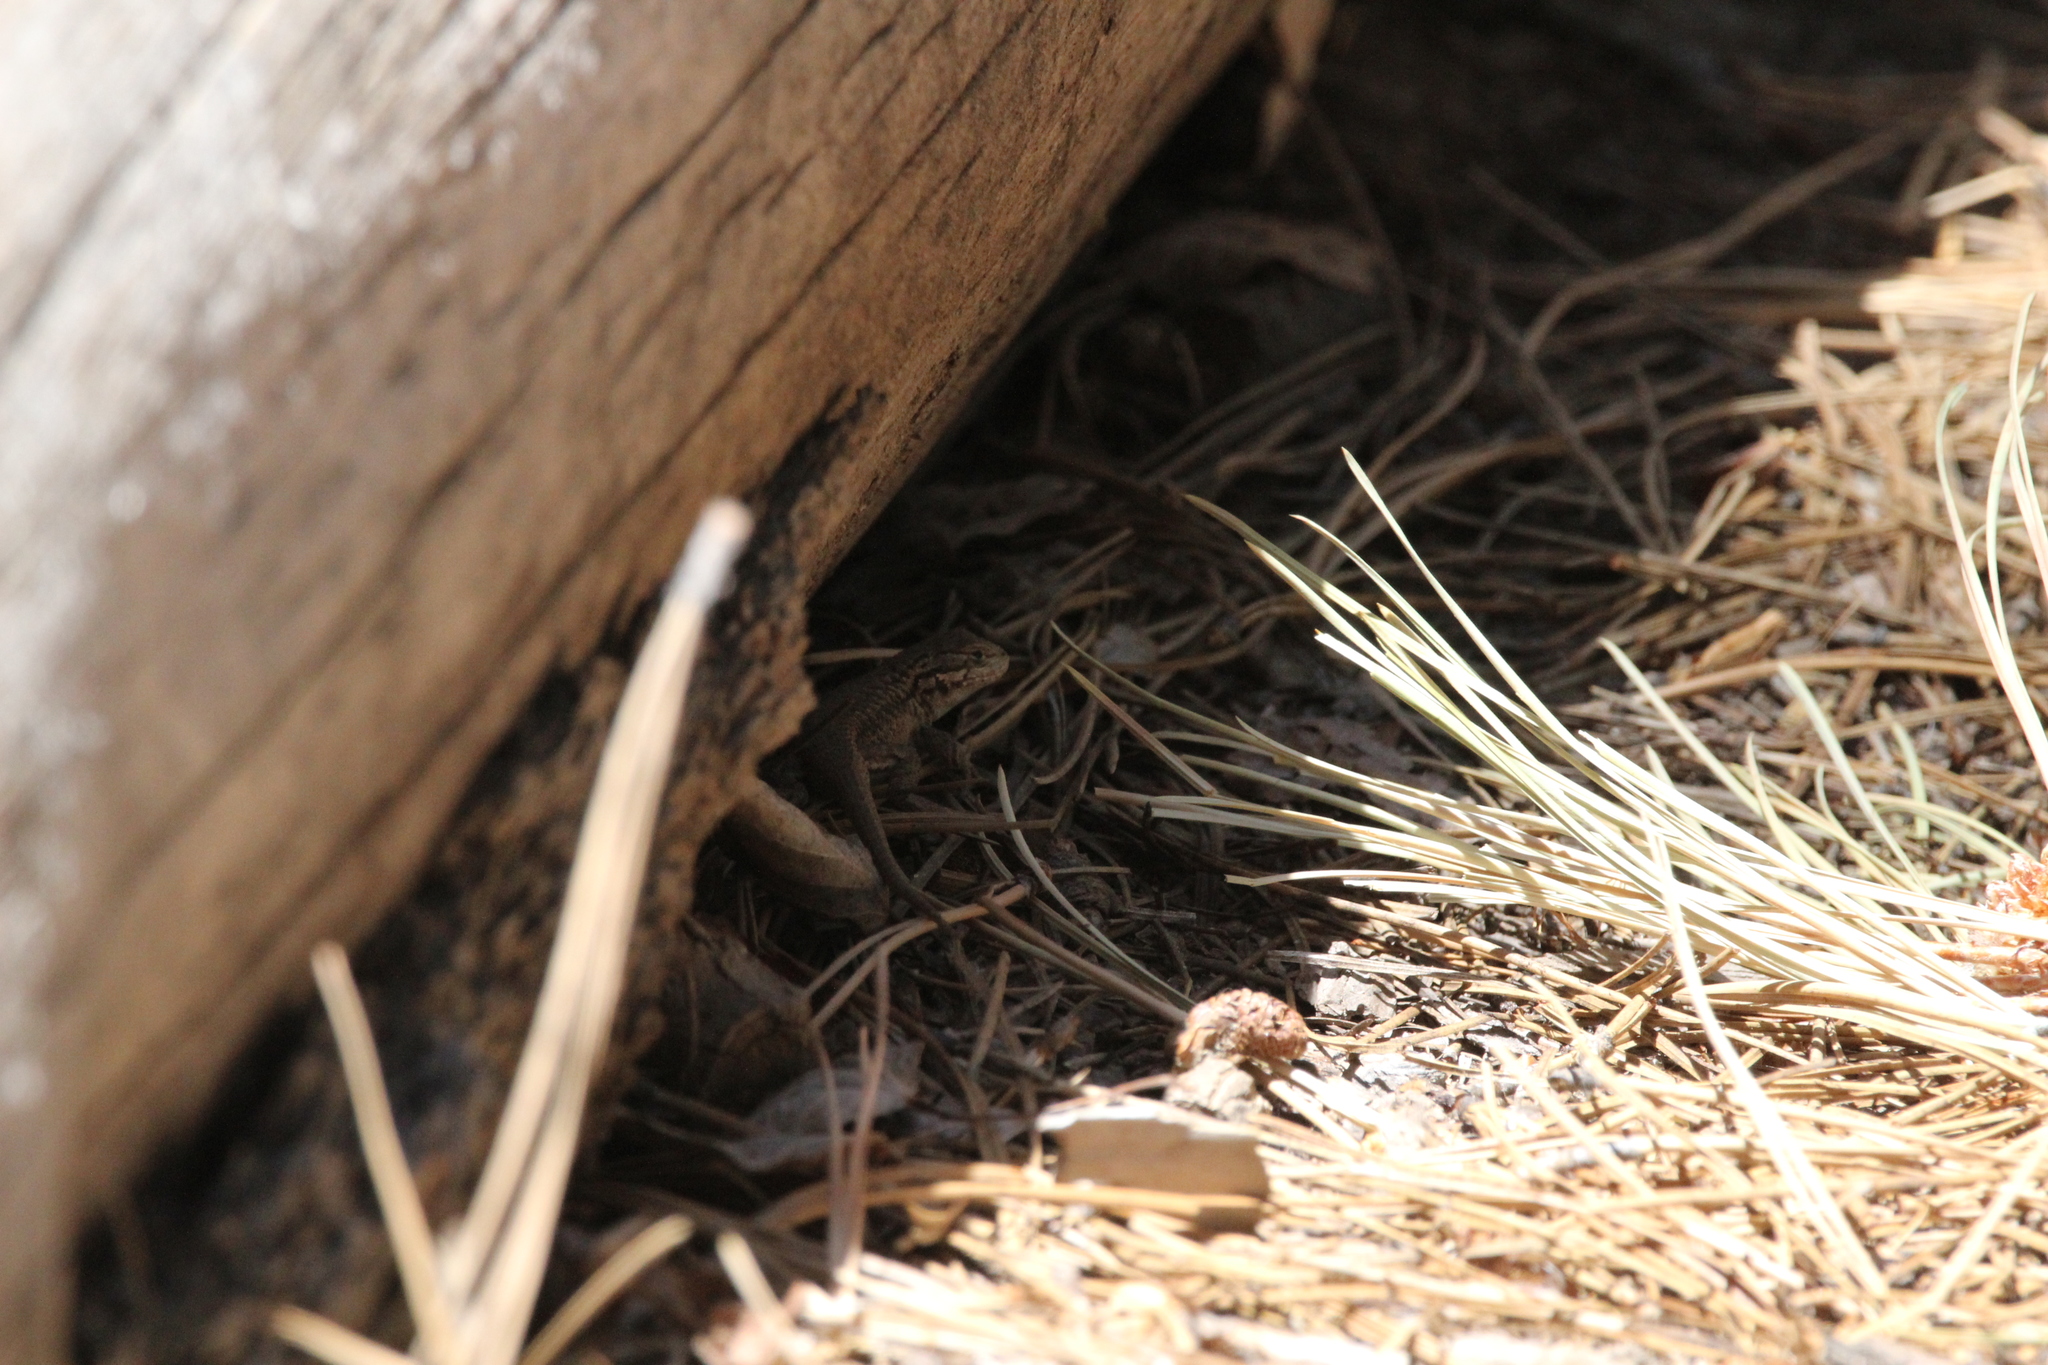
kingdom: Animalia
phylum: Chordata
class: Squamata
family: Phrynosomatidae
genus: Sceloporus
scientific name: Sceloporus graciosus
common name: Sagebrush lizard
